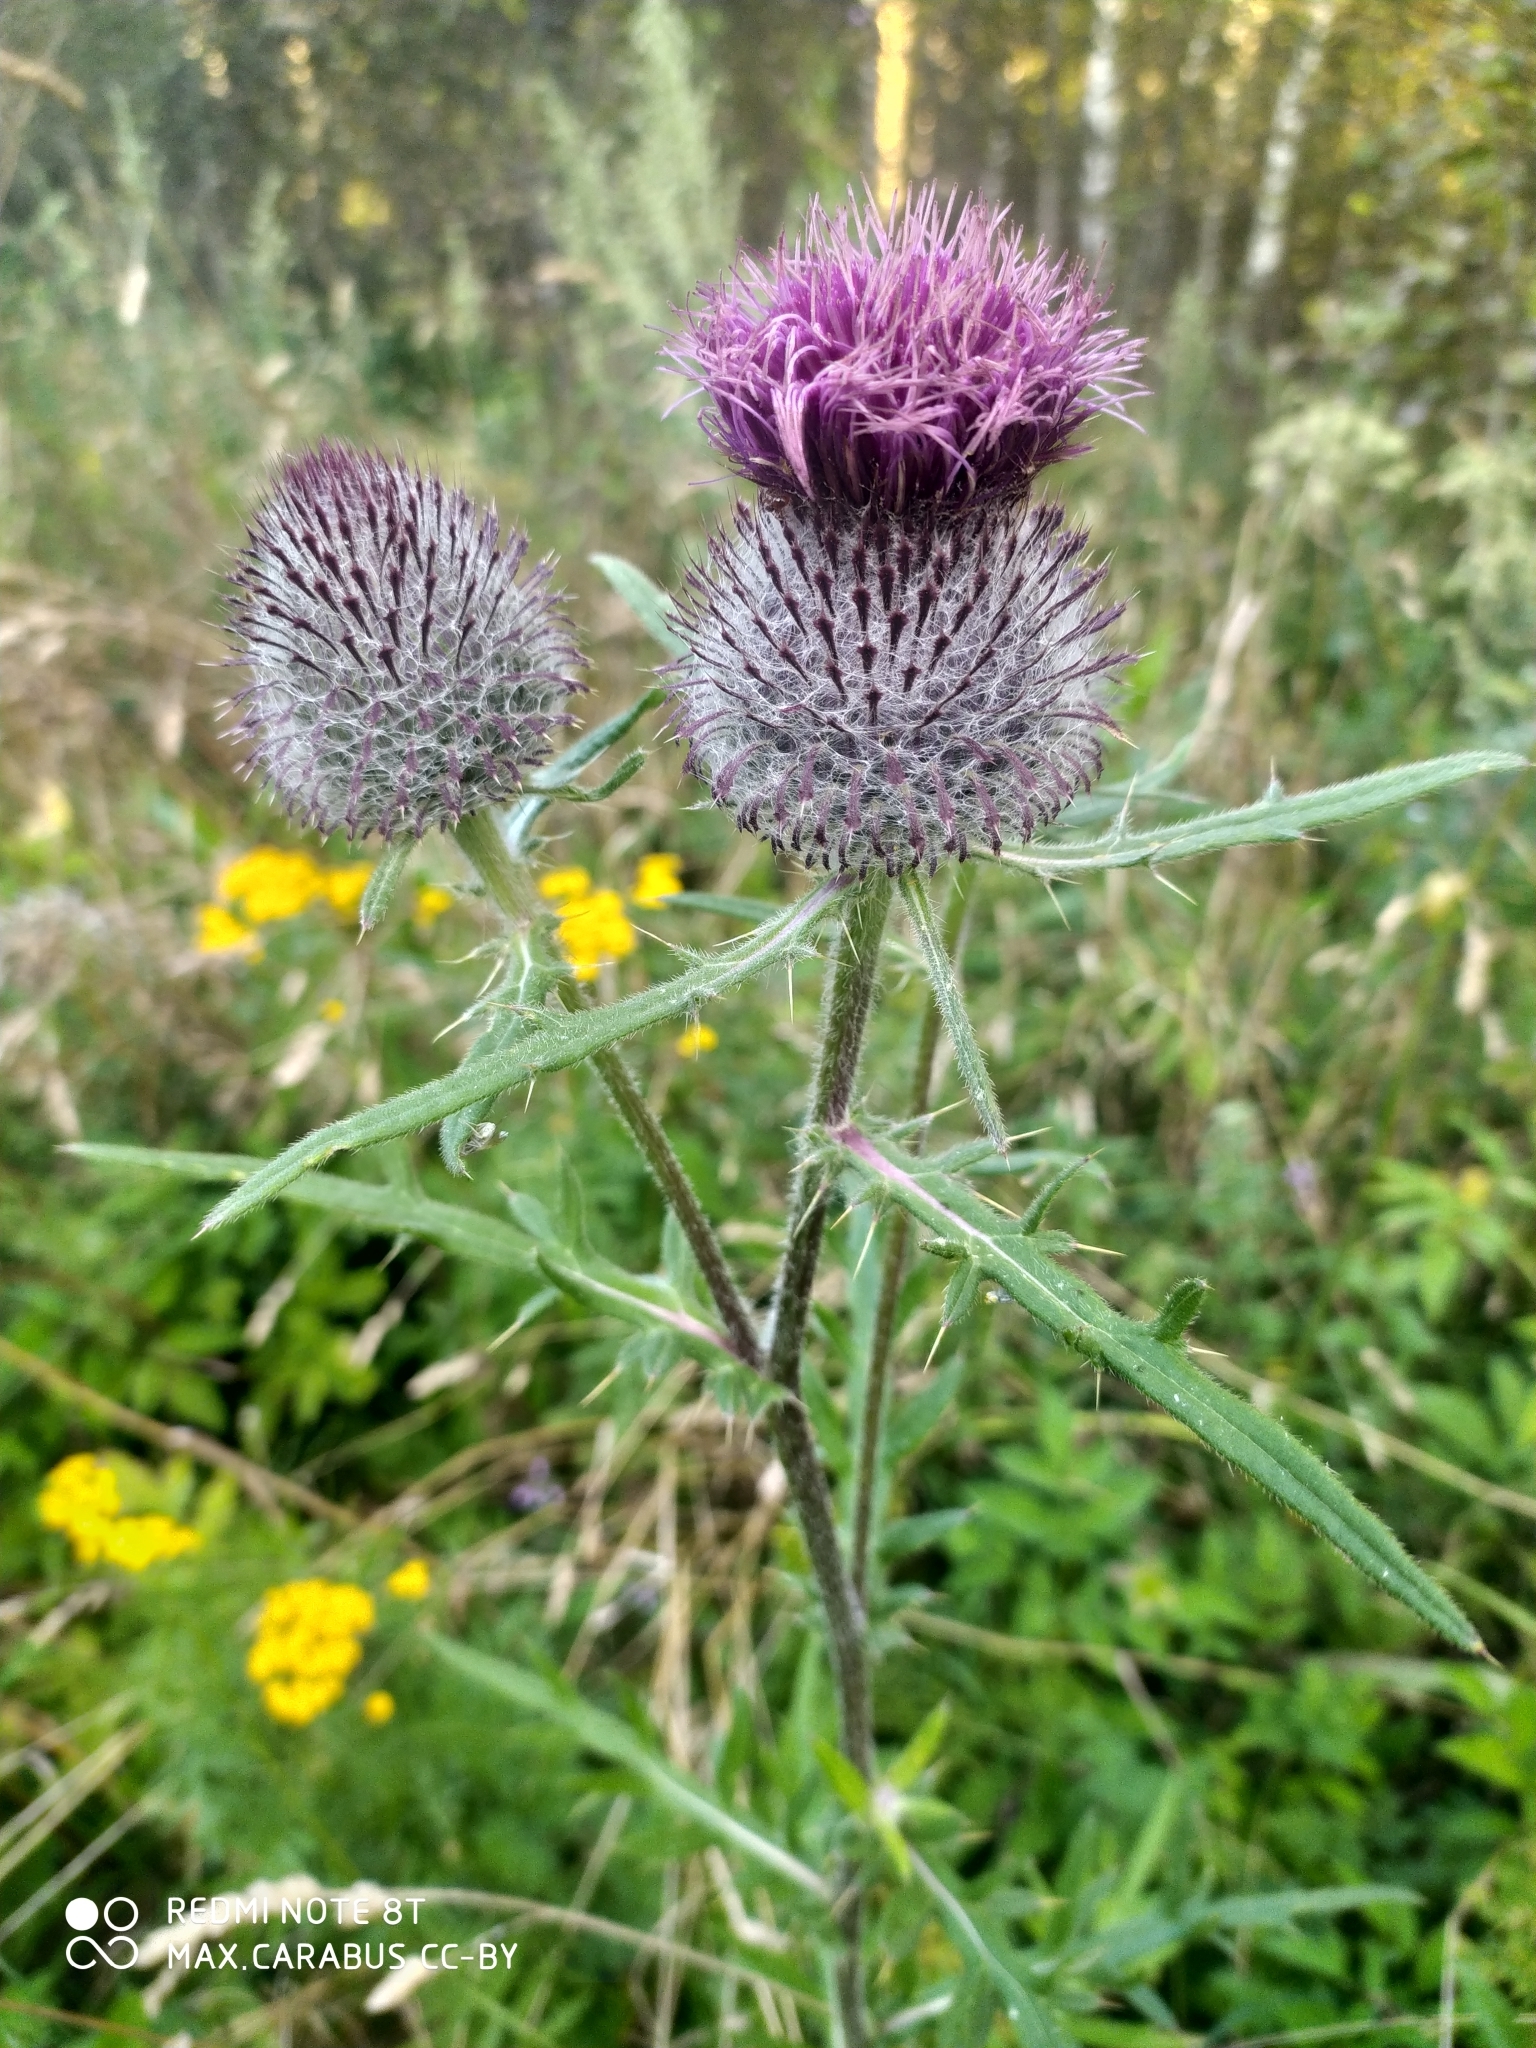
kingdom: Plantae
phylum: Tracheophyta
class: Magnoliopsida
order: Asterales
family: Asteraceae
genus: Lophiolepis
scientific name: Lophiolepis decussata
